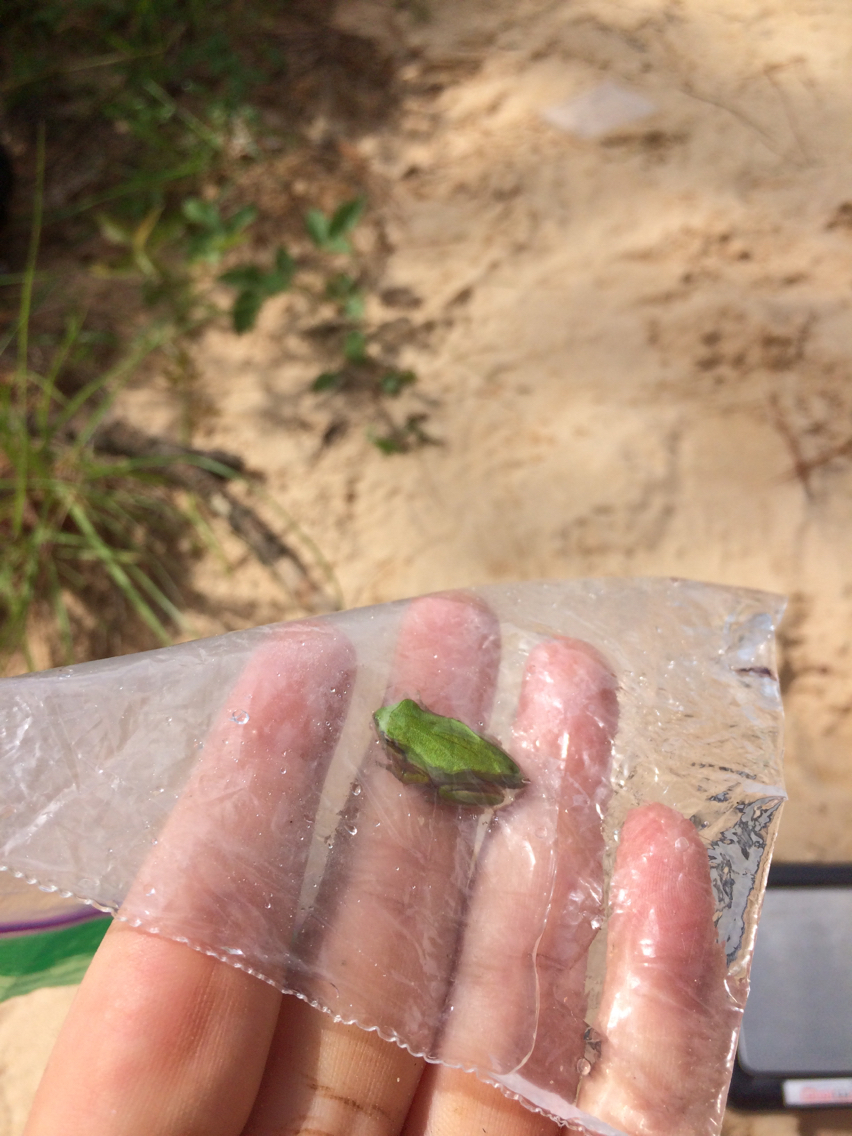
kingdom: Animalia
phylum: Chordata
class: Amphibia
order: Anura
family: Hylidae
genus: Dryophytes
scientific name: Dryophytes cinereus
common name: Green treefrog
